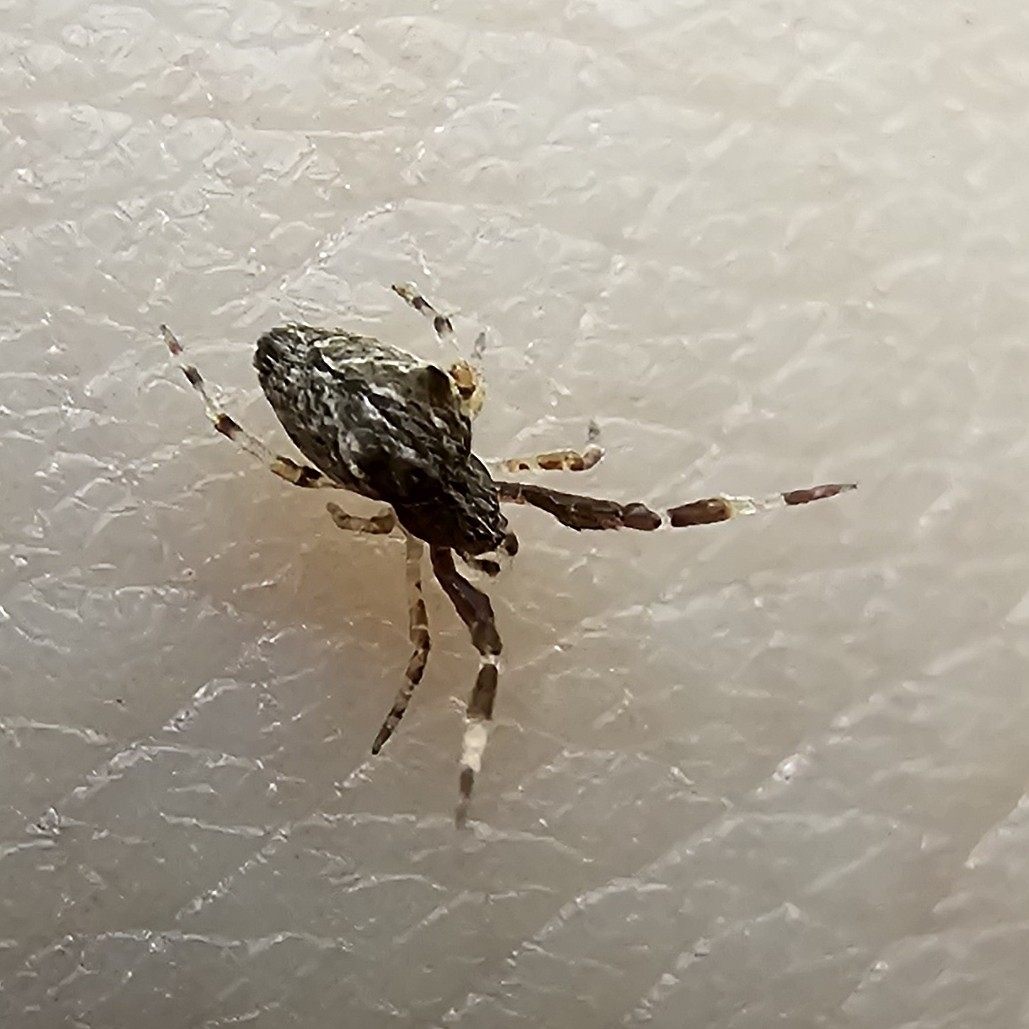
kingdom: Animalia
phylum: Arthropoda
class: Arachnida
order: Araneae
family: Uloboridae
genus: Uloborus
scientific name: Uloborus plumipes
